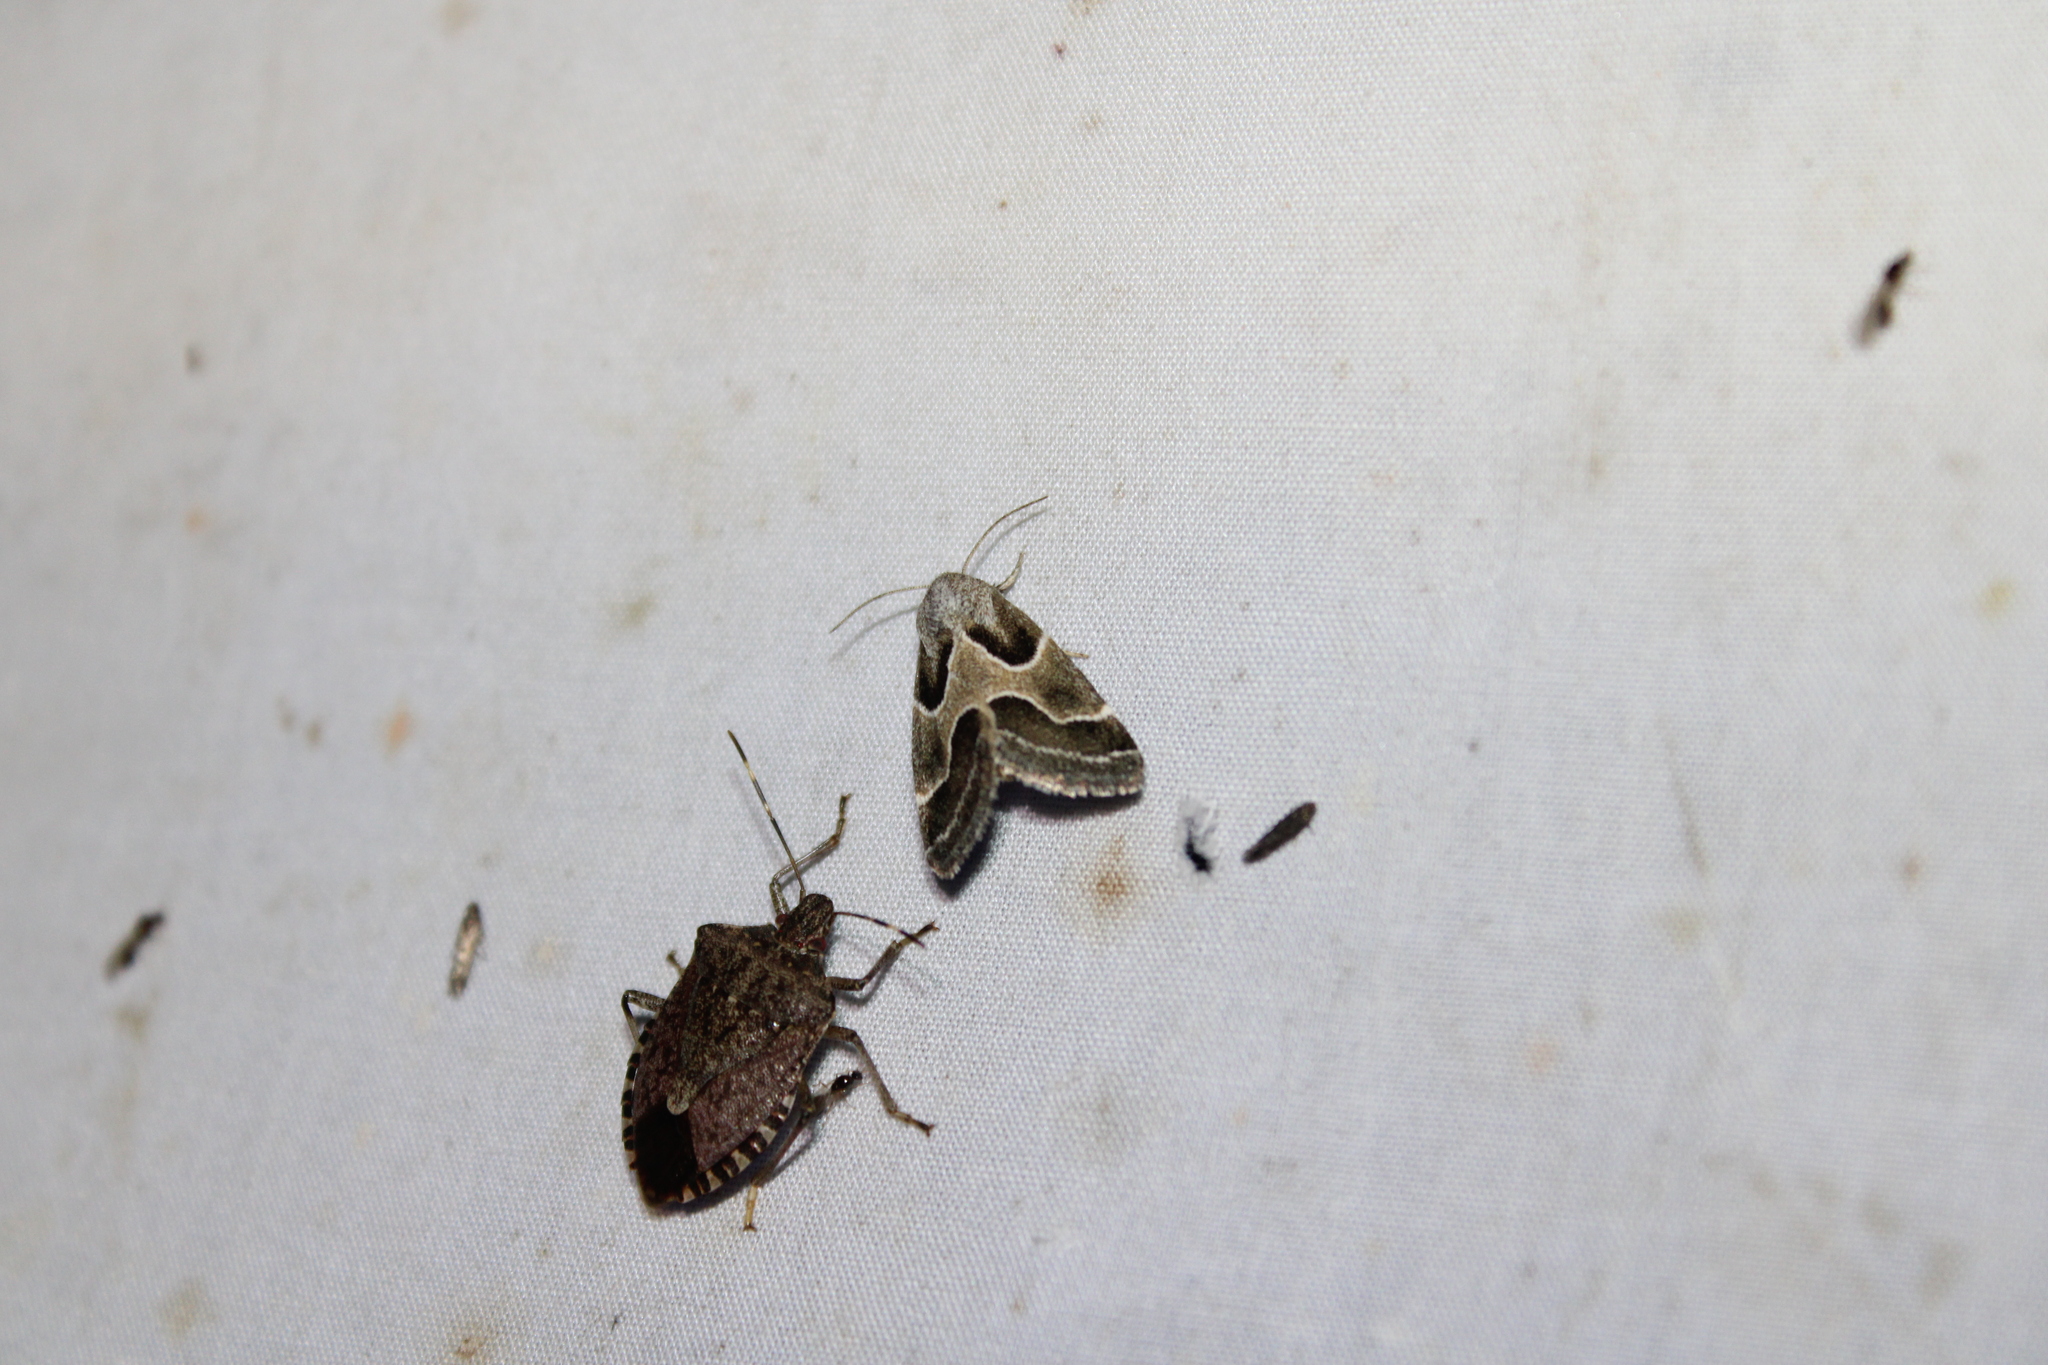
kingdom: Animalia
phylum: Arthropoda
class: Insecta
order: Lepidoptera
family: Noctuidae
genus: Schinia
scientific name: Schinia rivulosa
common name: Scarce meal-moth
